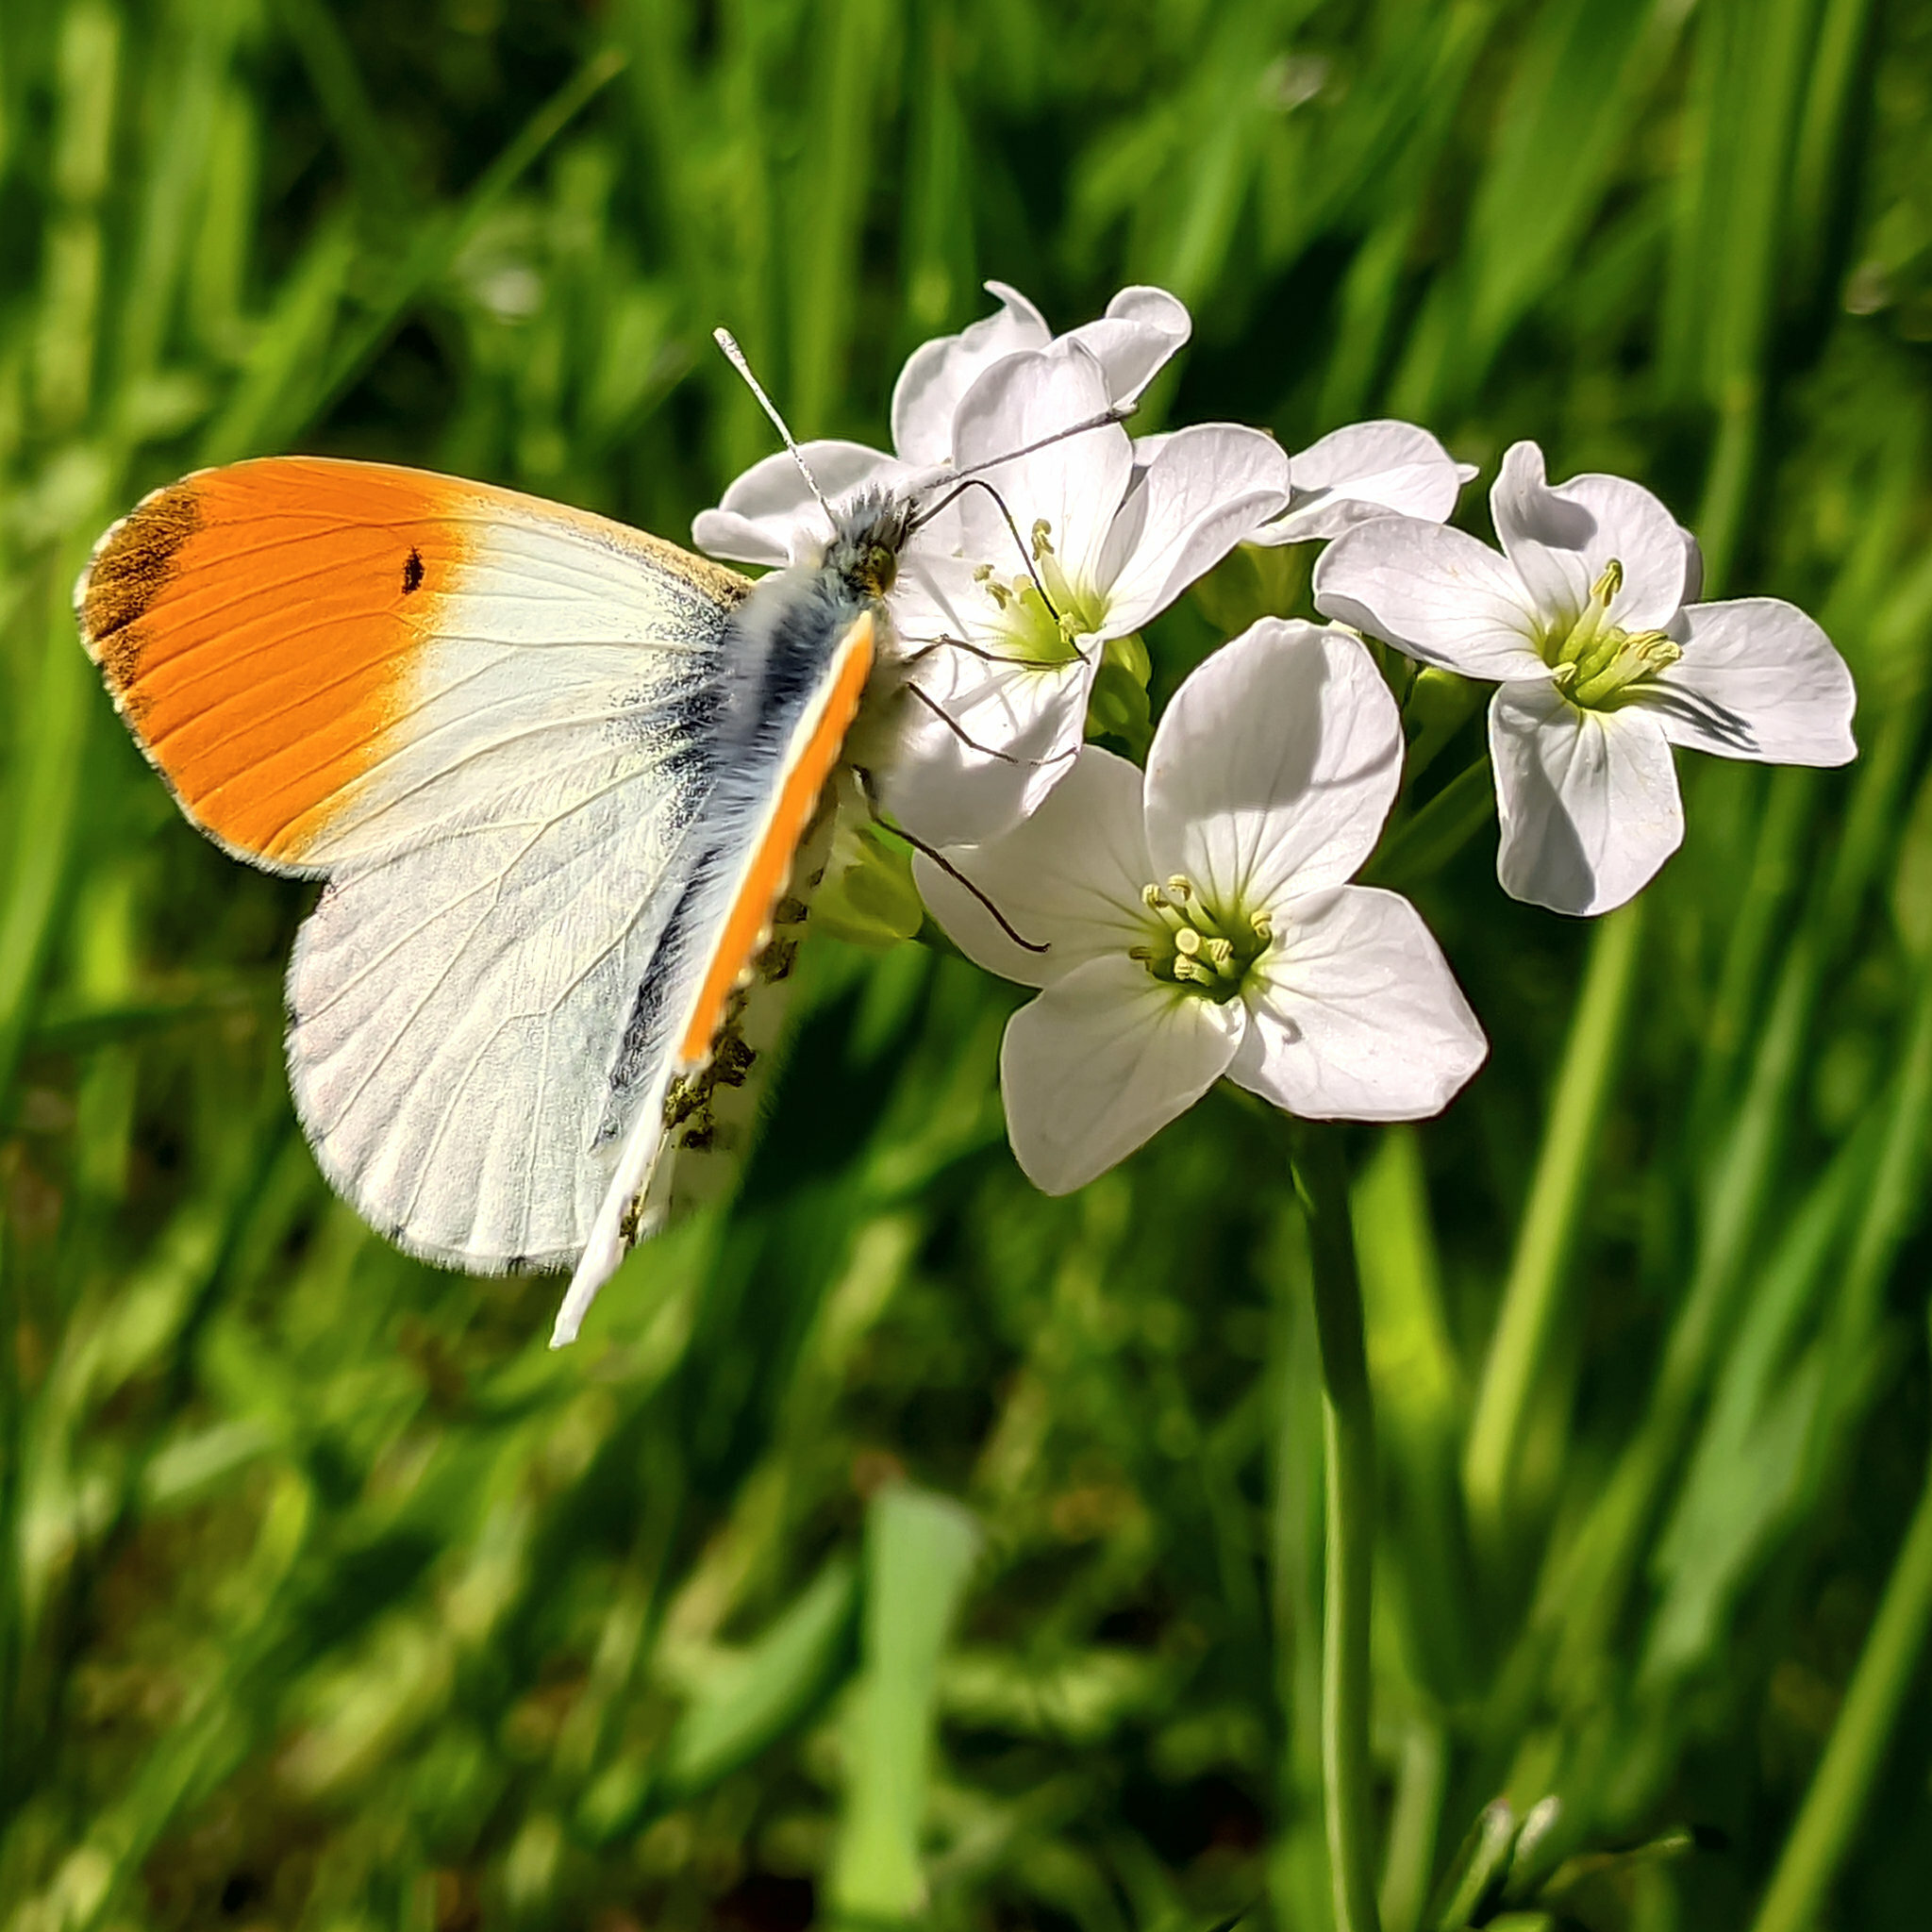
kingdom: Animalia
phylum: Arthropoda
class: Insecta
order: Lepidoptera
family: Pieridae
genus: Anthocharis
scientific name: Anthocharis cardamines
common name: Orange-tip
